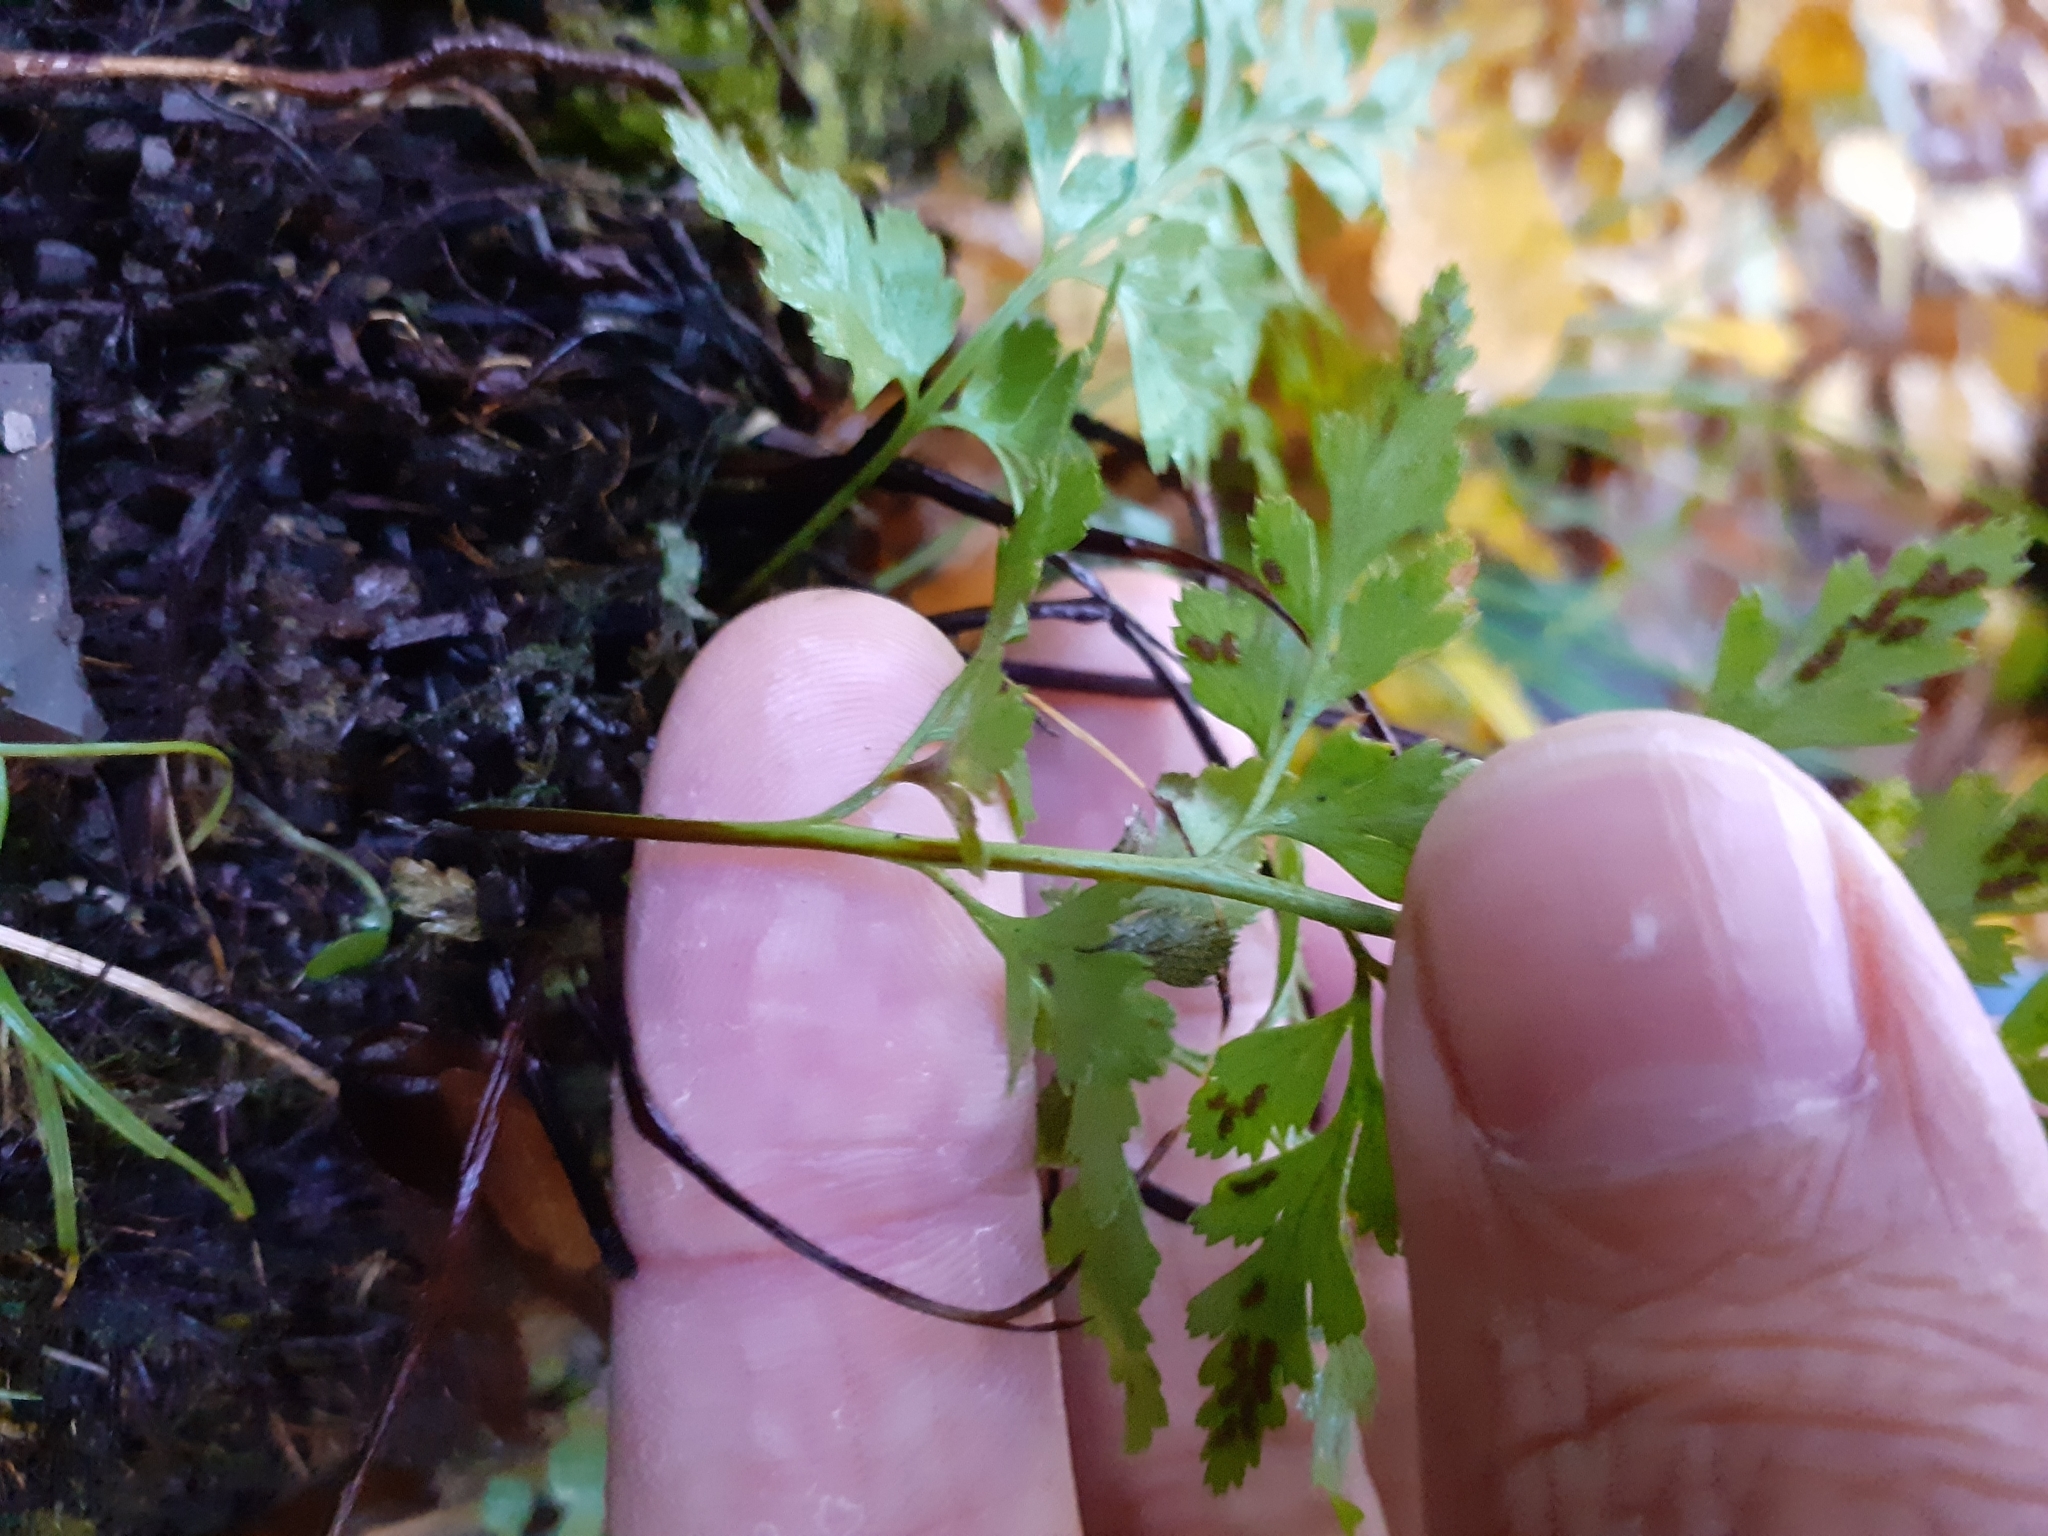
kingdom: Plantae
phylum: Tracheophyta
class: Polypodiopsida
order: Polypodiales
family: Aspleniaceae
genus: Asplenium
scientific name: Asplenium adiantum-nigrum
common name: Black spleenwort
